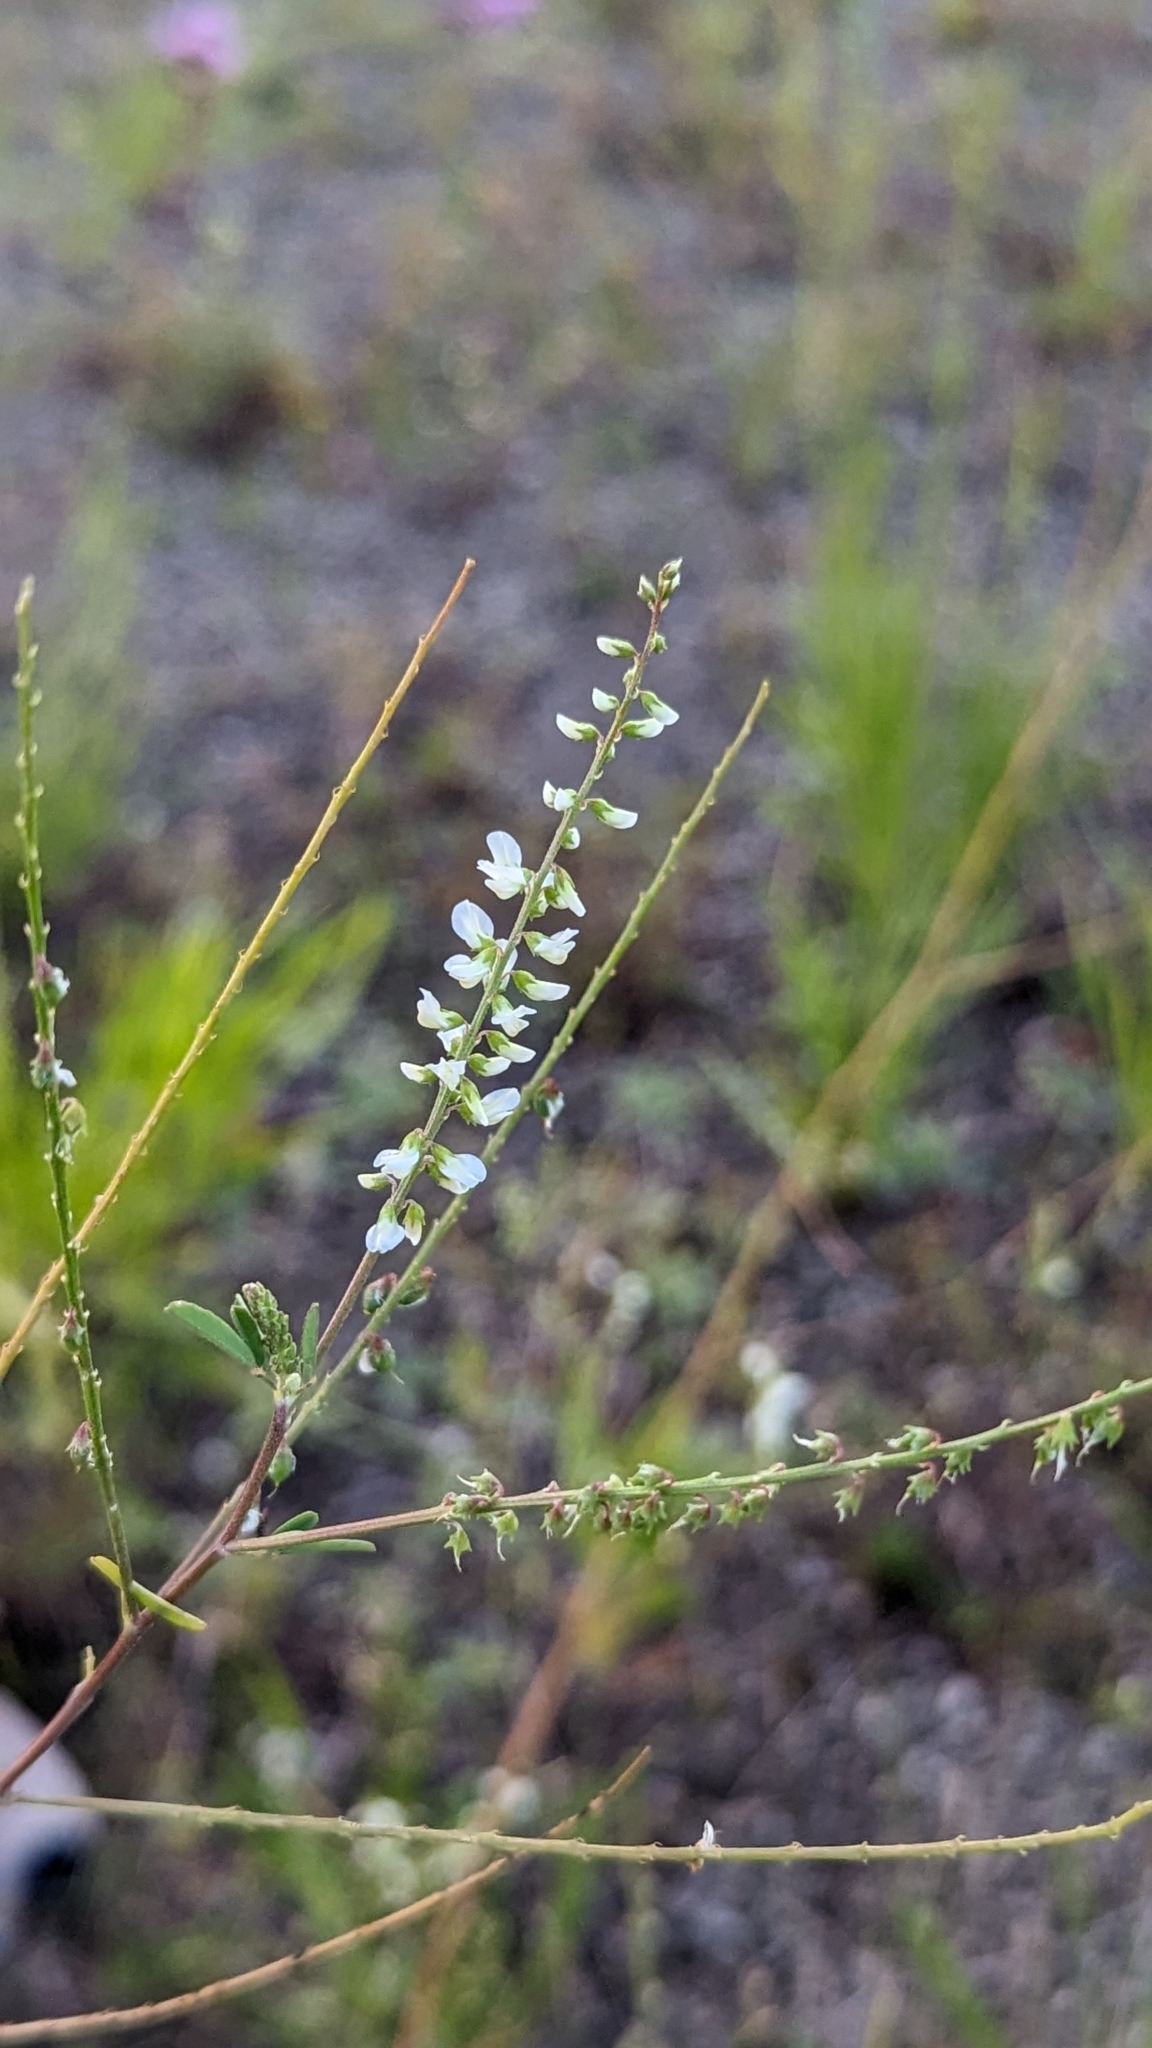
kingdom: Plantae
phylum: Tracheophyta
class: Magnoliopsida
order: Fabales
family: Fabaceae
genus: Melilotus
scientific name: Melilotus albus
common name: White melilot
